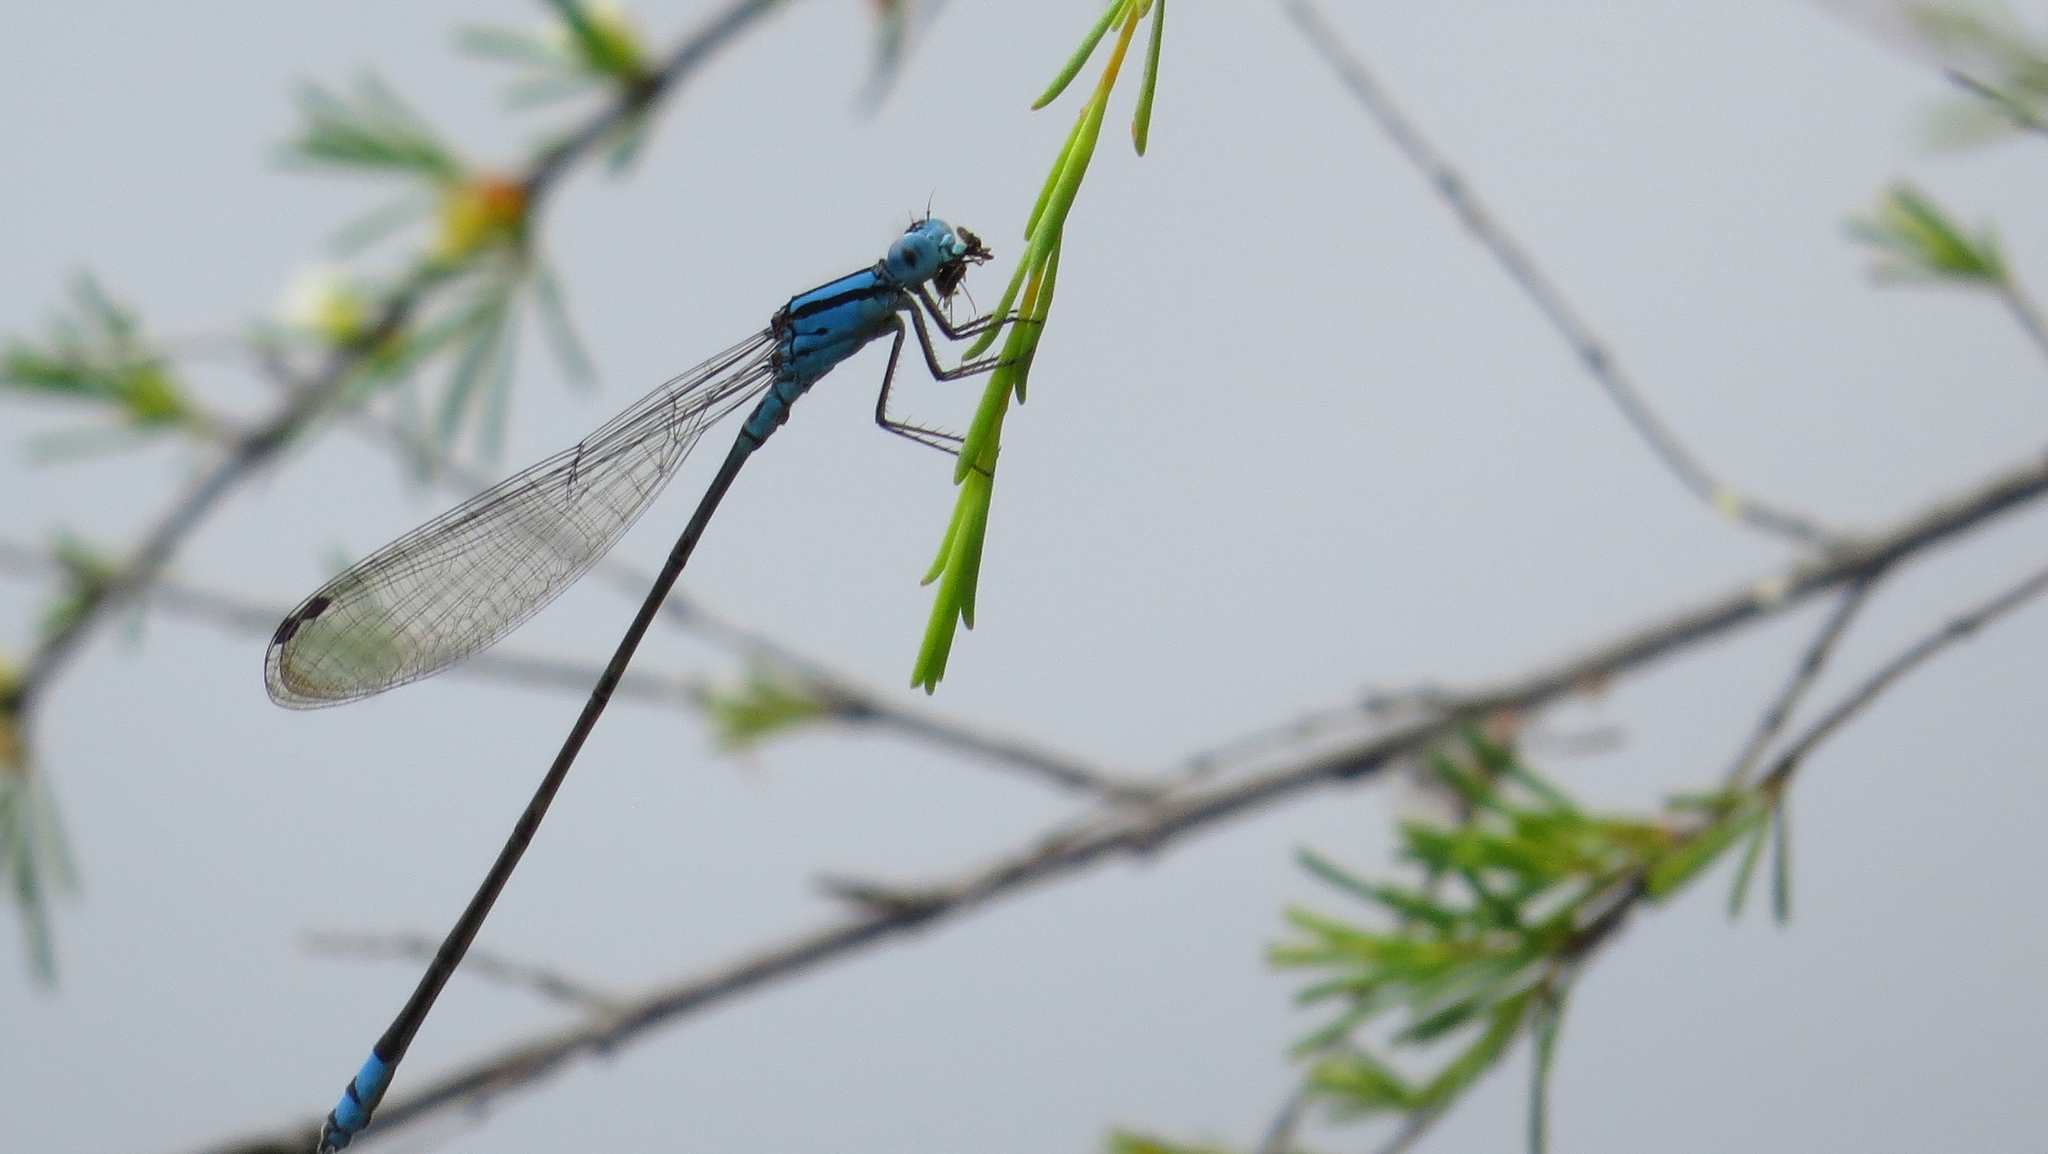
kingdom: Animalia
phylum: Arthropoda
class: Insecta
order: Odonata
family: Coenagrionidae
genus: Pseudagrion
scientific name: Pseudagrion microcephalum
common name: Blue riverdamsel
